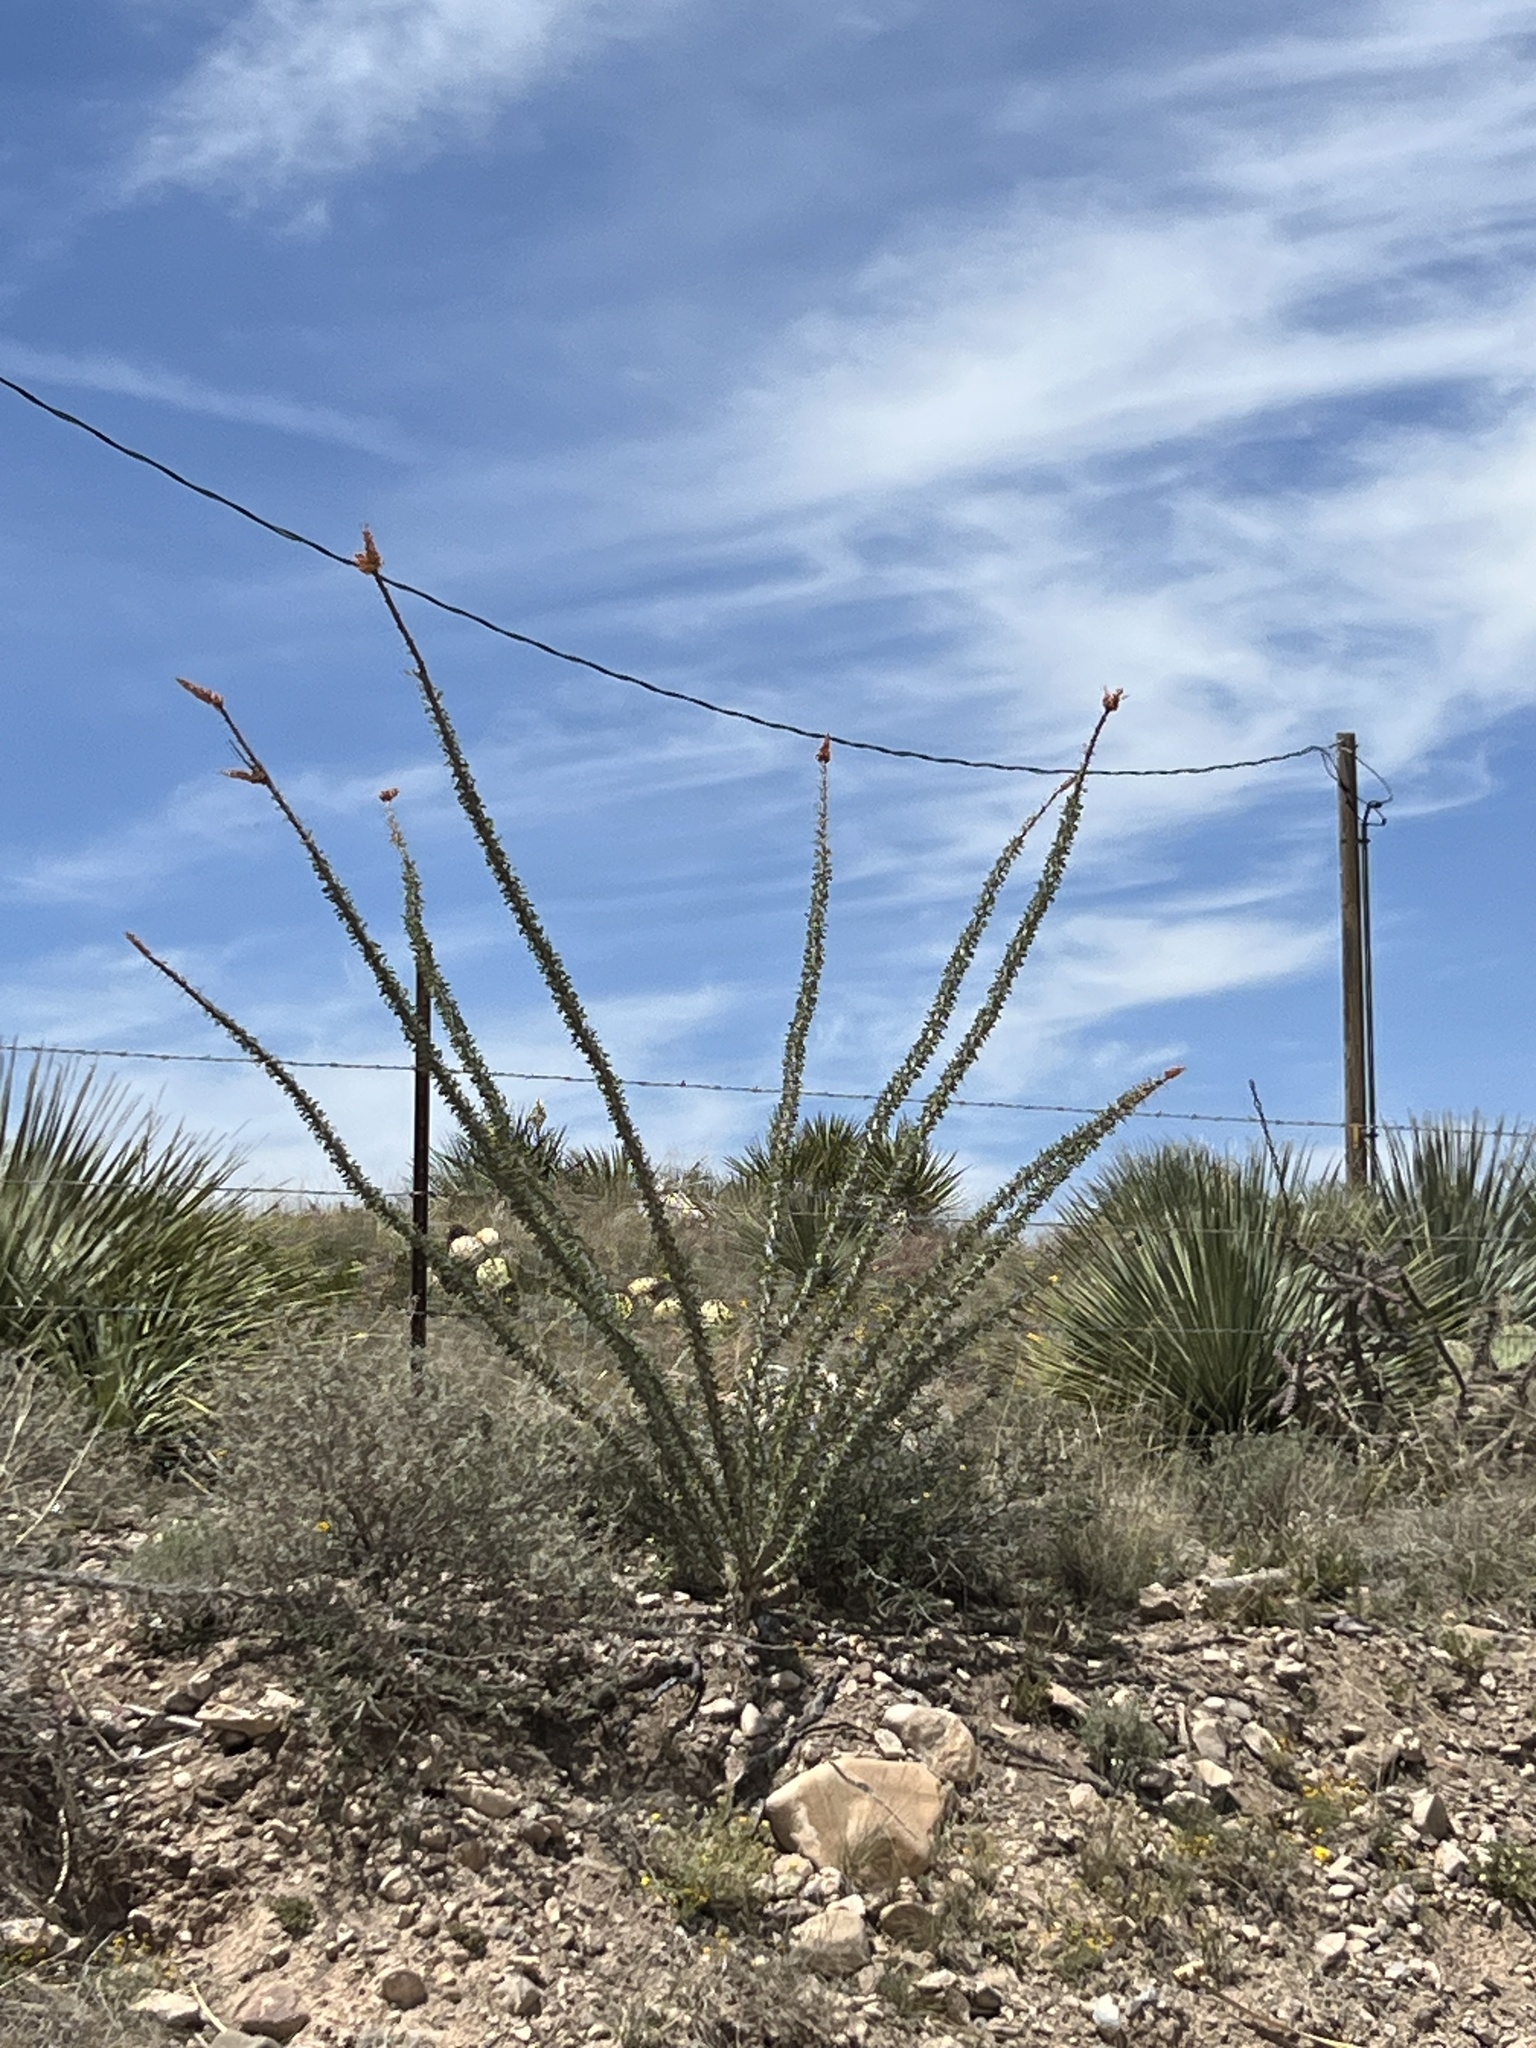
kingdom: Plantae
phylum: Tracheophyta
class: Magnoliopsida
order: Ericales
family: Fouquieriaceae
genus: Fouquieria
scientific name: Fouquieria splendens
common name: Vine-cactus
